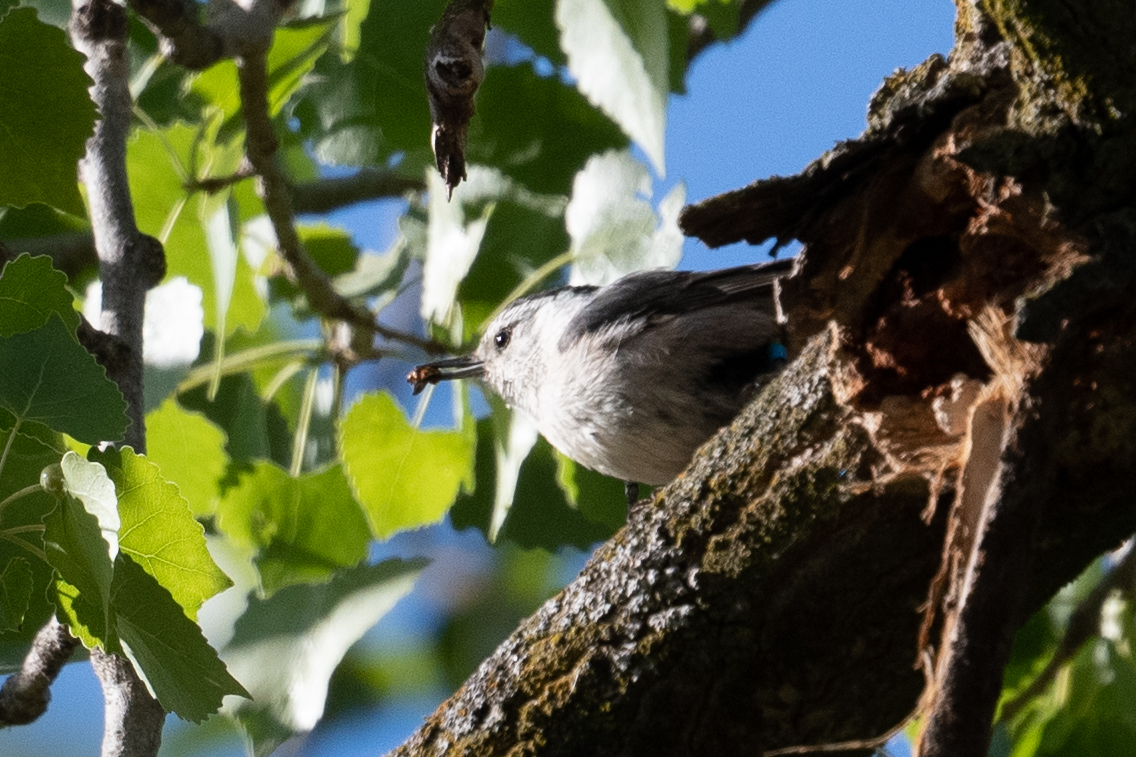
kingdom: Animalia
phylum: Chordata
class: Aves
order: Passeriformes
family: Sittidae
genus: Sitta
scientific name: Sitta carolinensis
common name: White-breasted nuthatch
